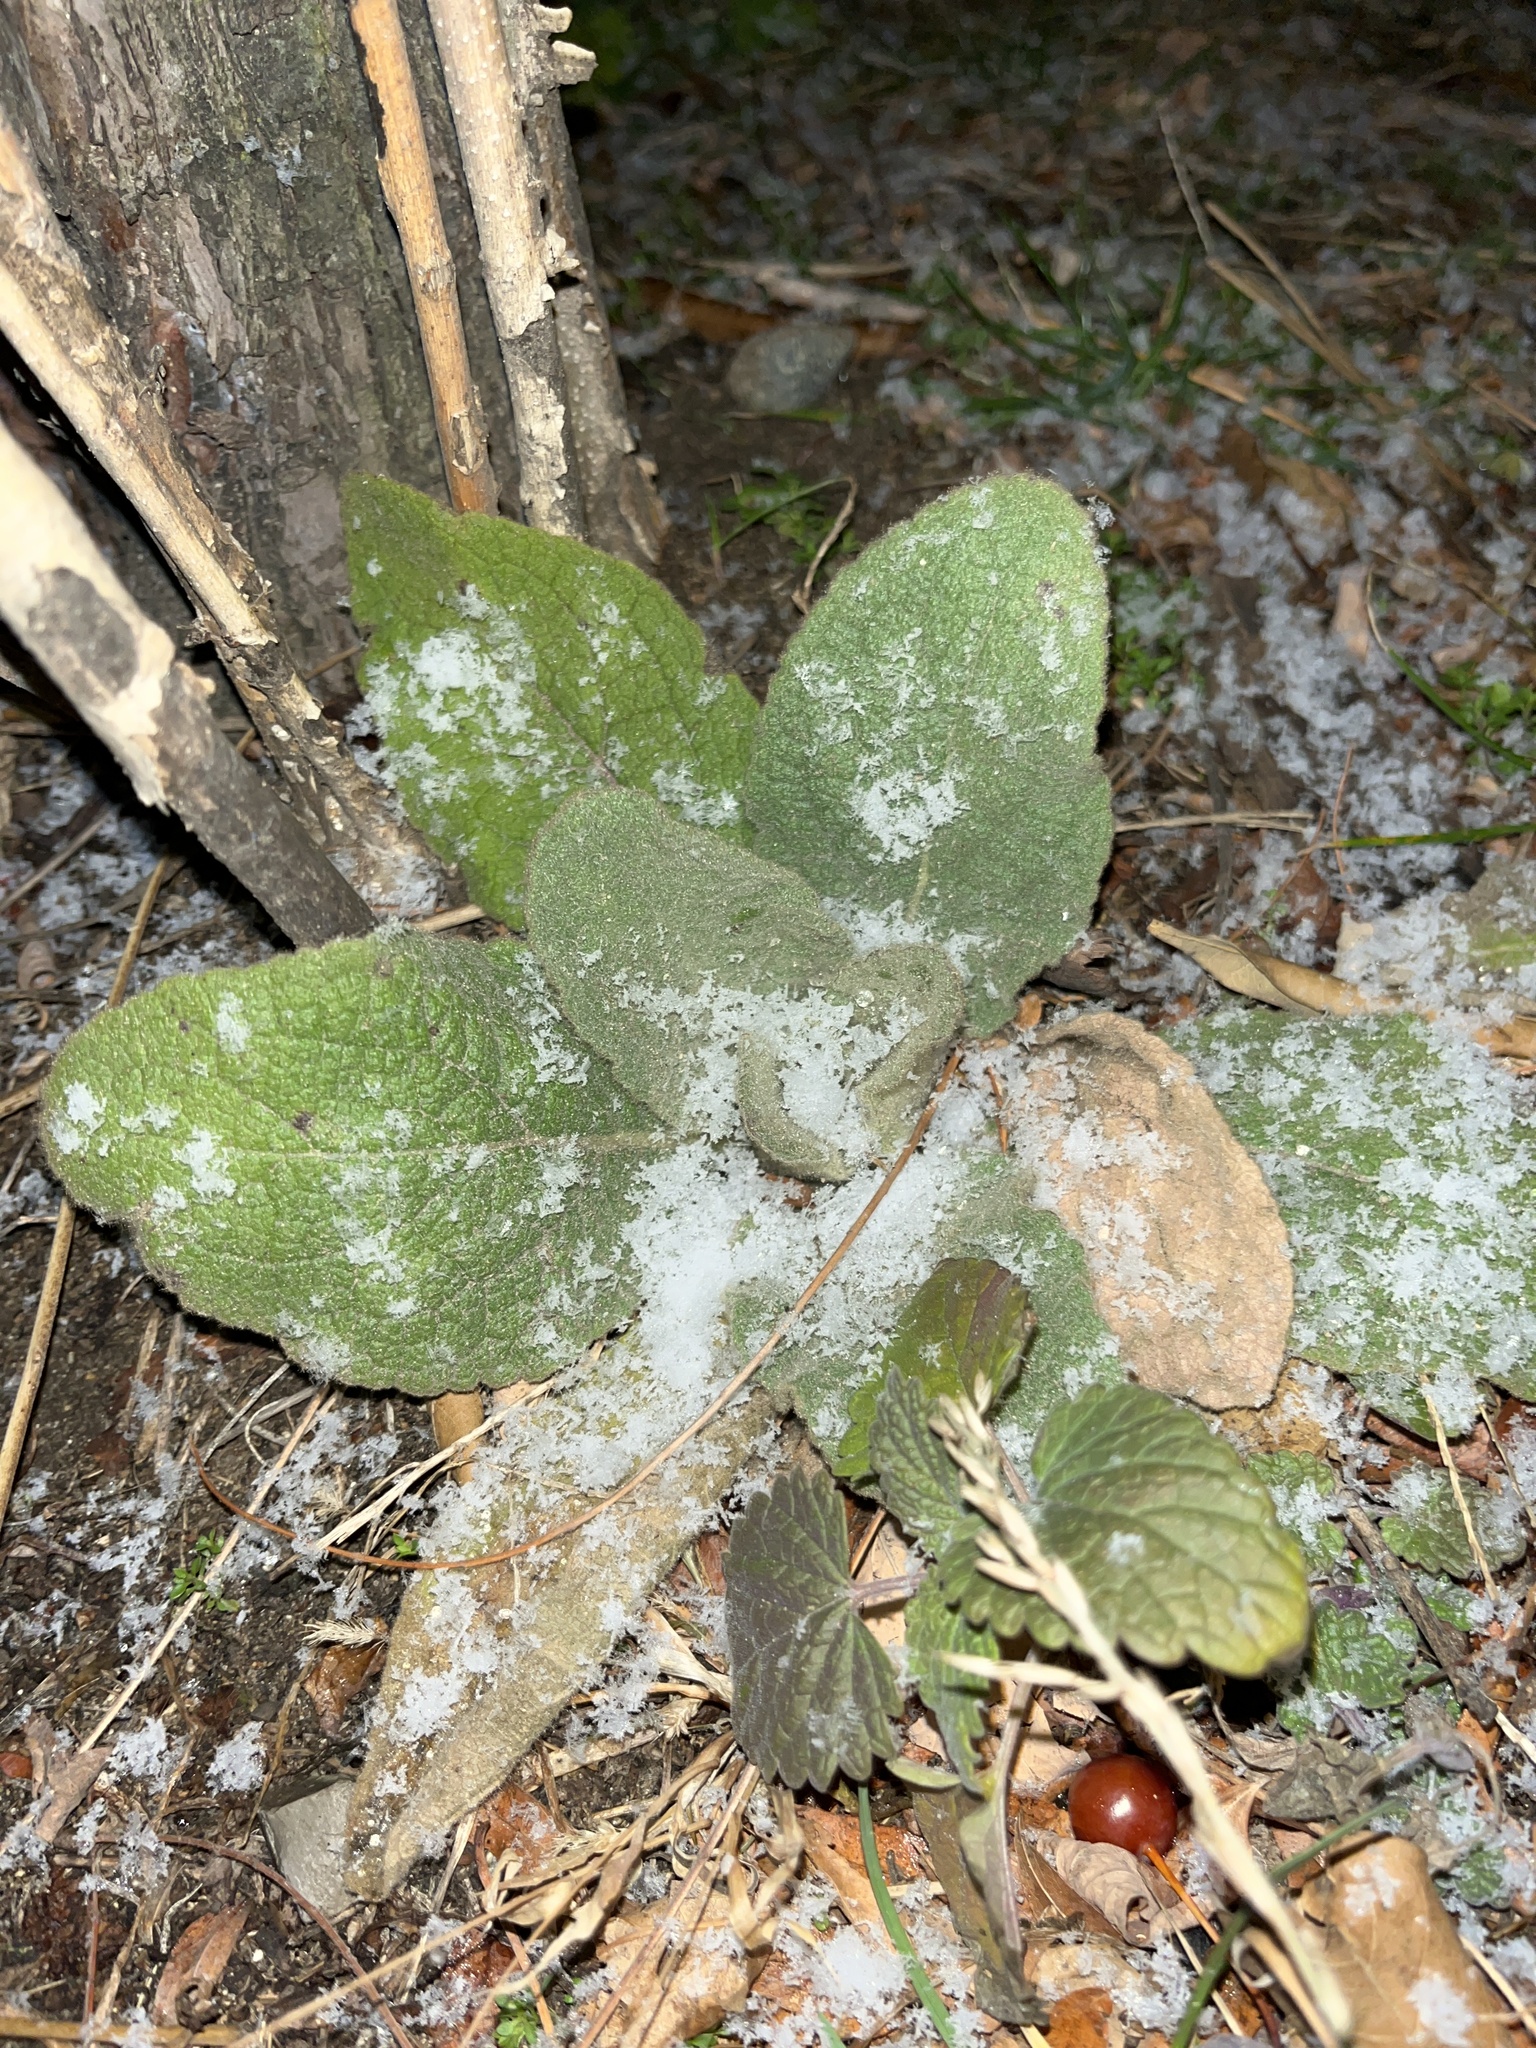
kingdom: Plantae
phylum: Tracheophyta
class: Magnoliopsida
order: Lamiales
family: Scrophulariaceae
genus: Verbascum
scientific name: Verbascum thapsus
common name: Common mullein
